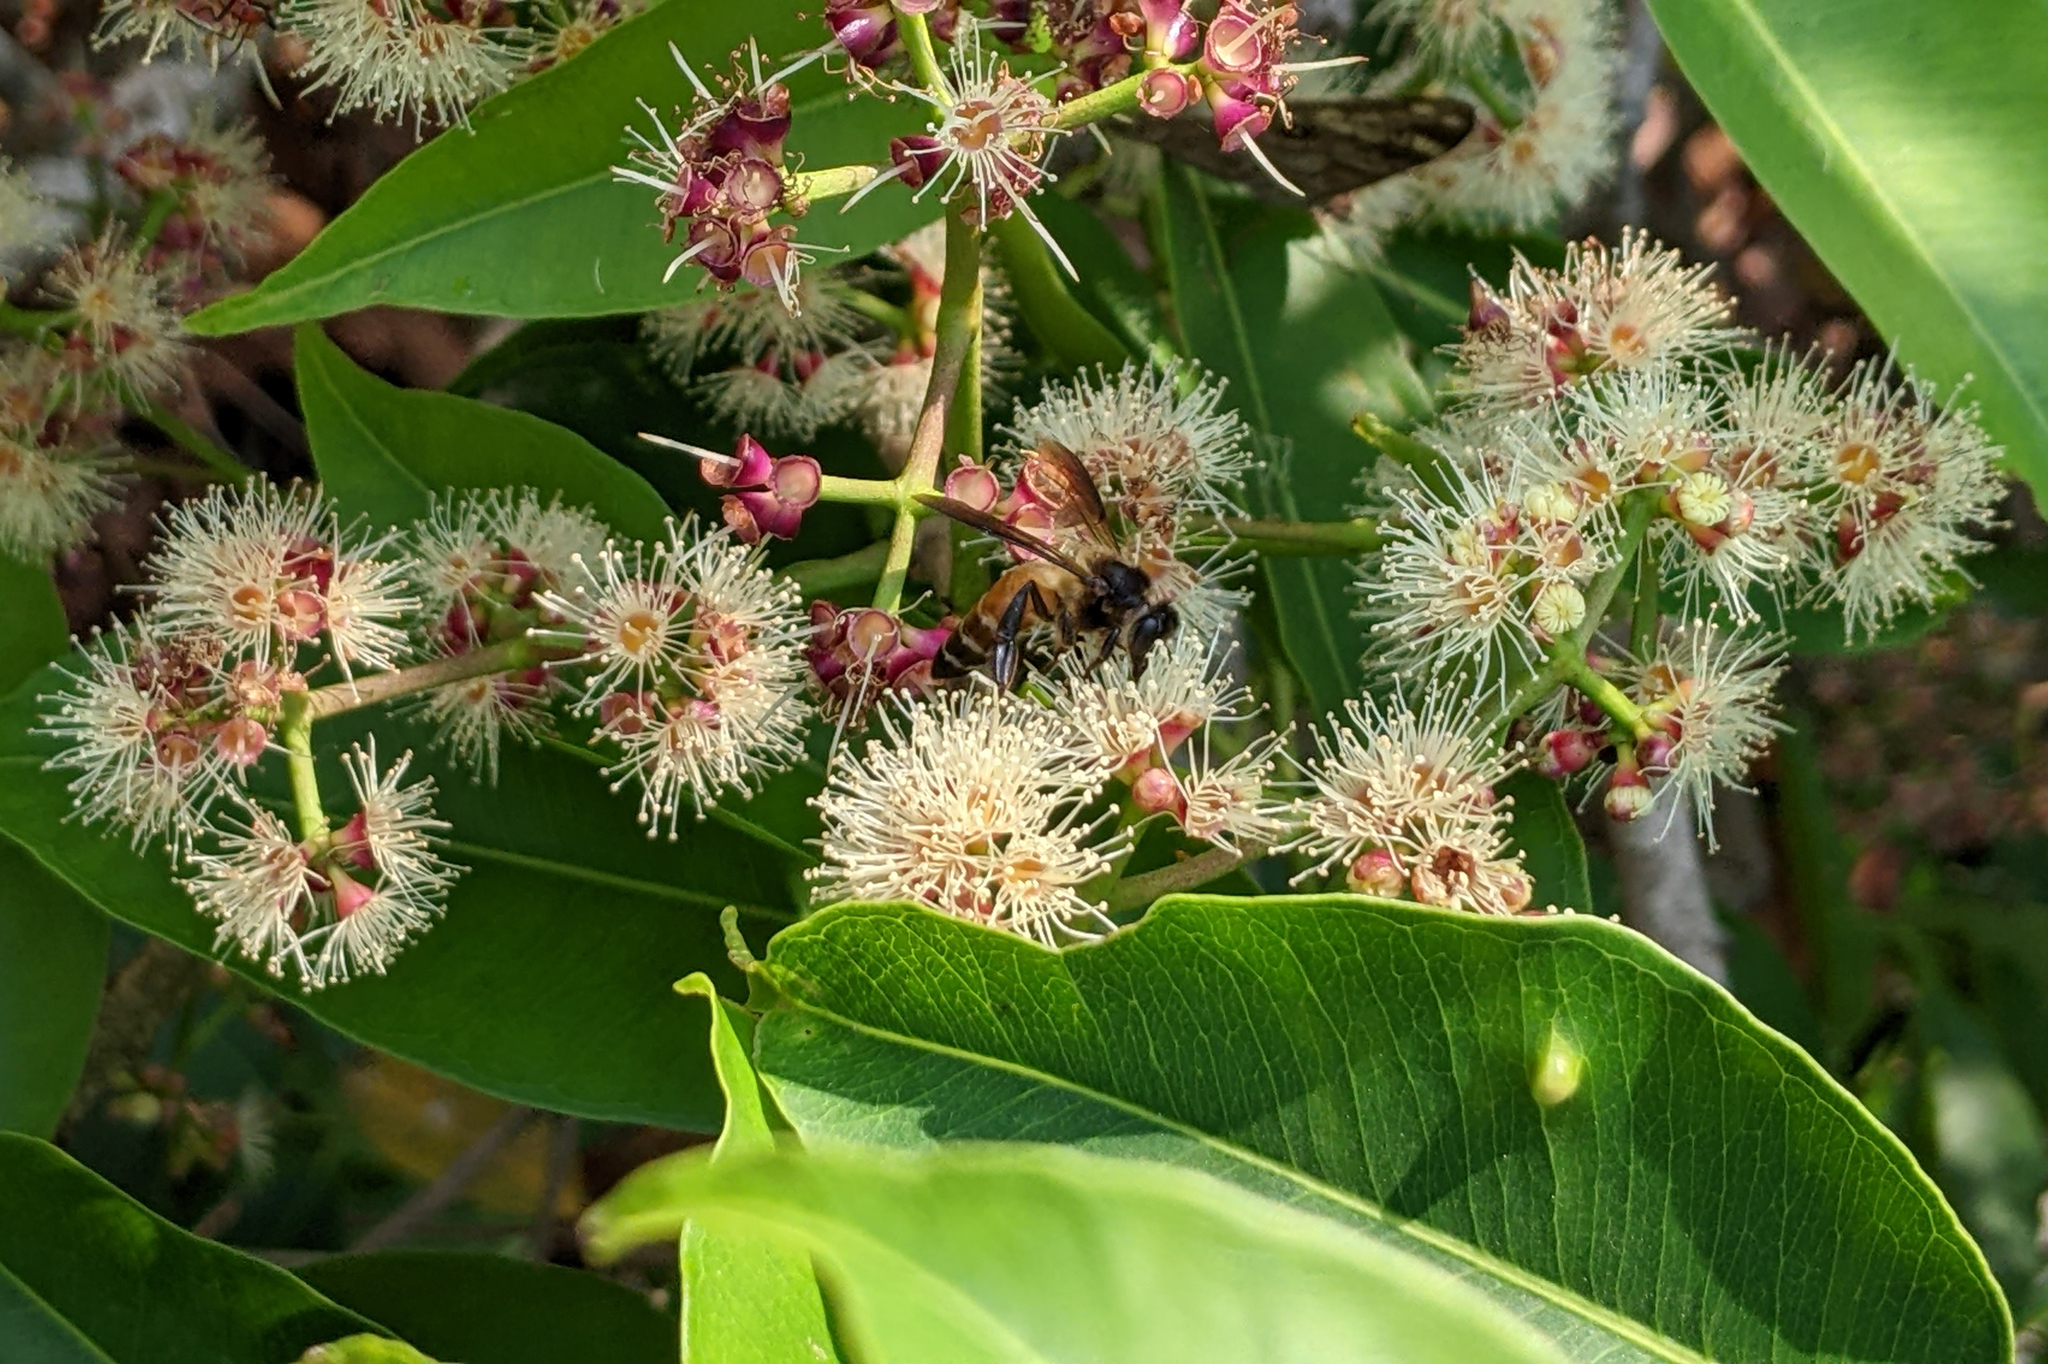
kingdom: Animalia
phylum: Arthropoda
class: Insecta
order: Hymenoptera
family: Apidae
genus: Apis
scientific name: Apis dorsata
